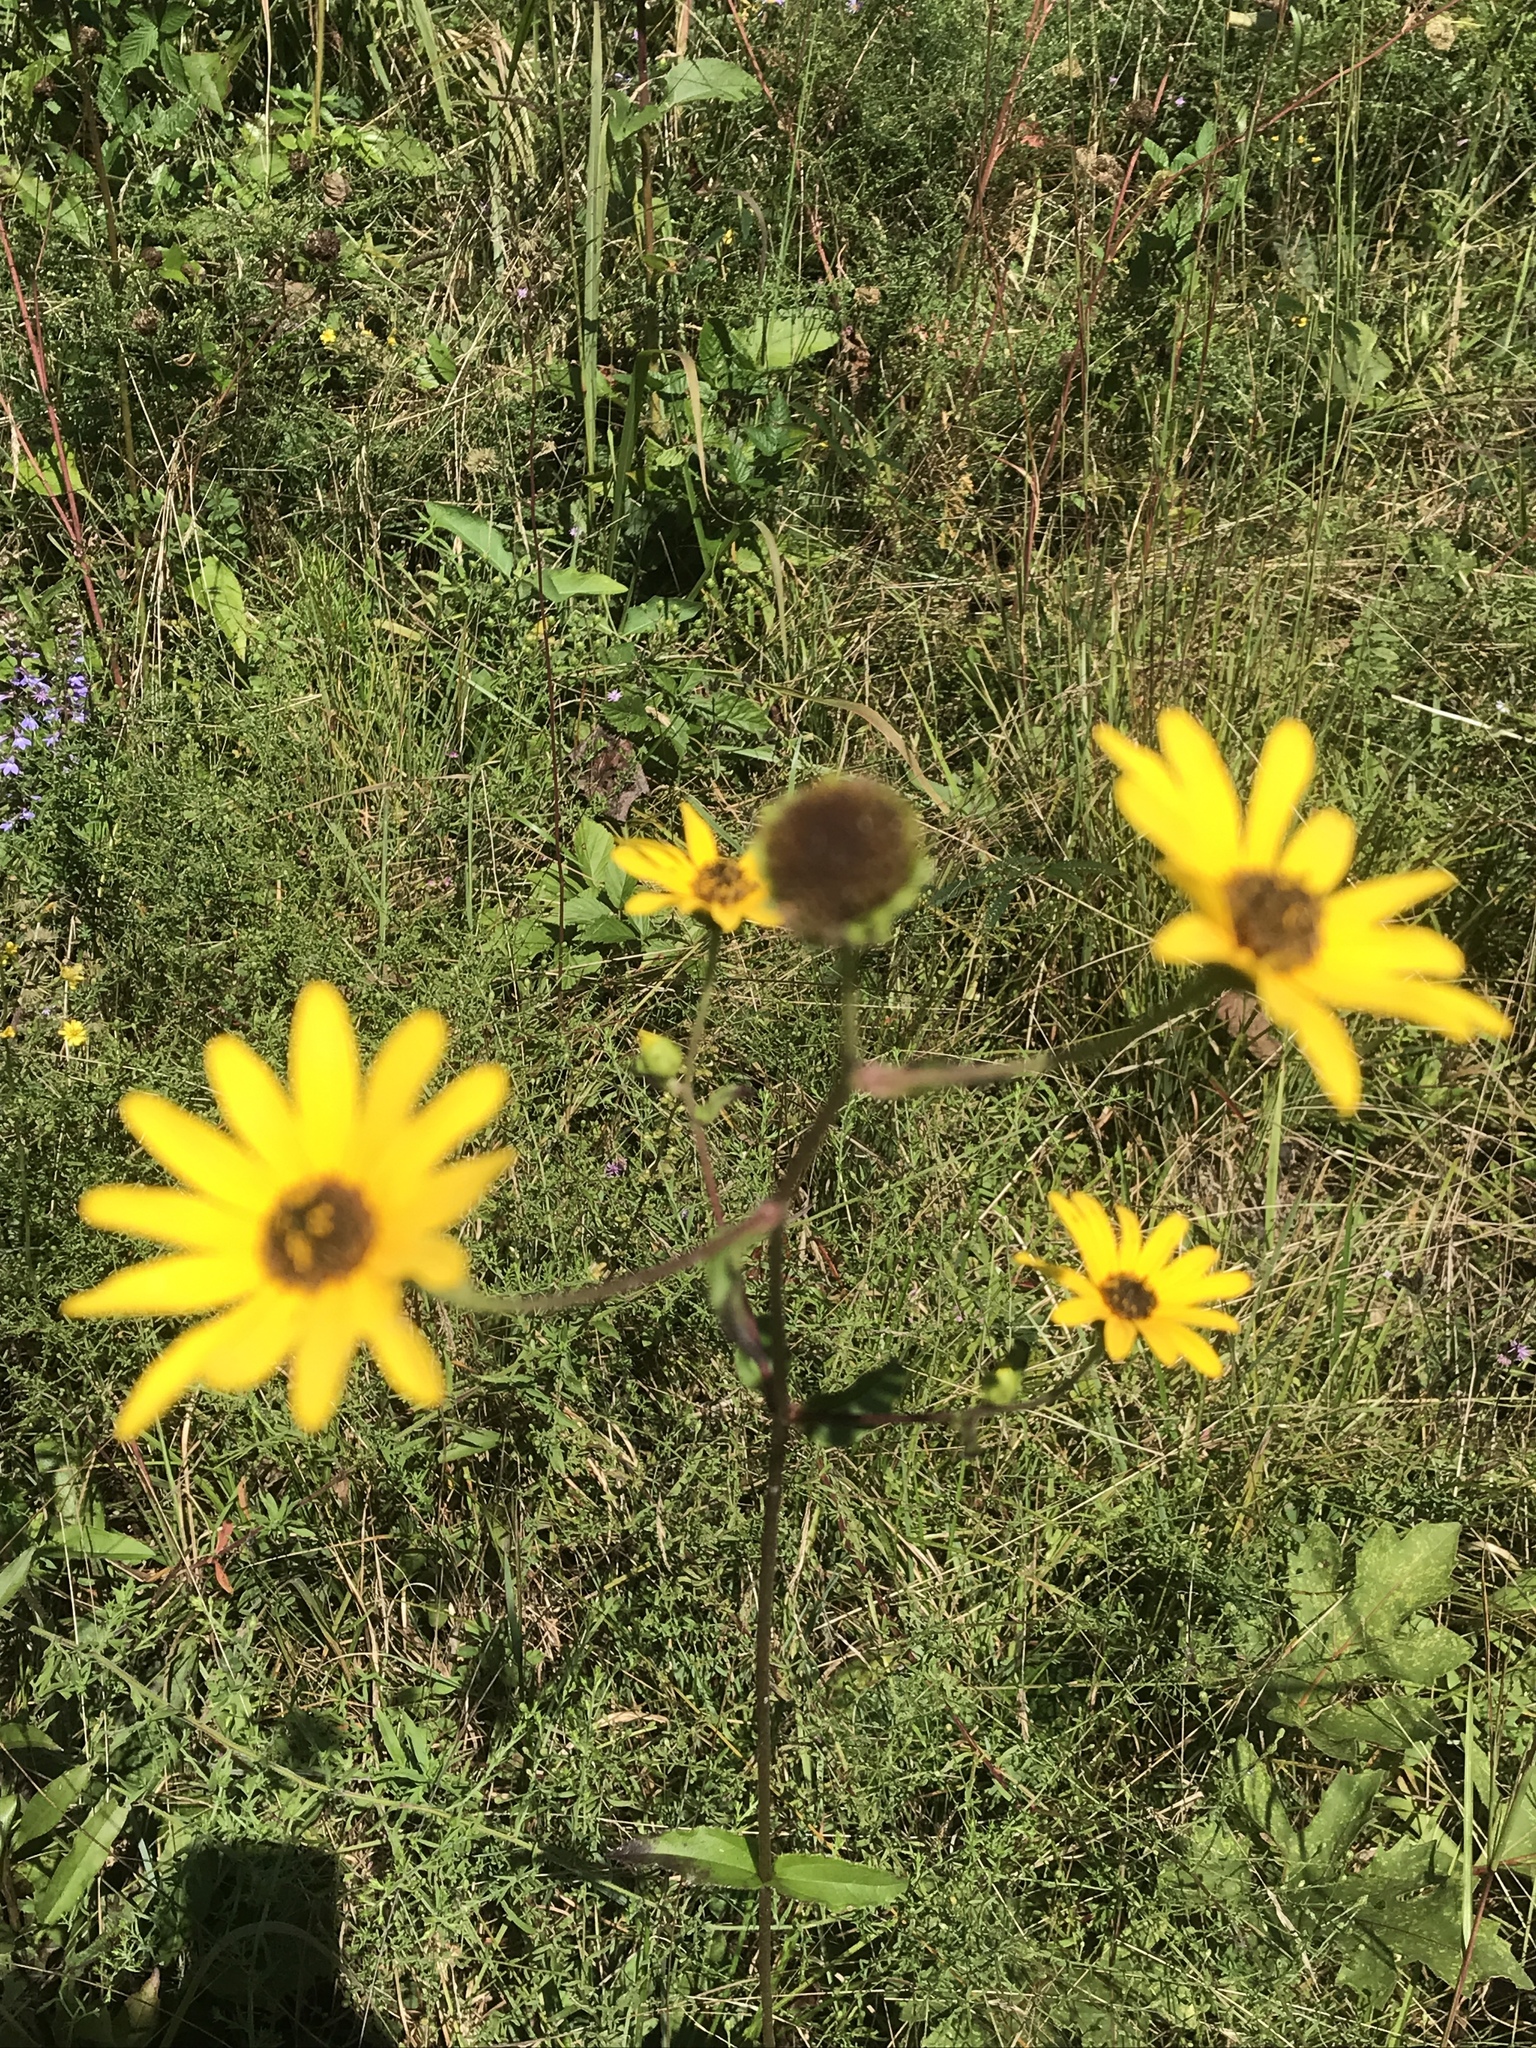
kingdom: Plantae
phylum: Tracheophyta
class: Magnoliopsida
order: Asterales
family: Asteraceae
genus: Helianthus
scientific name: Helianthus atrorubens
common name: Dark-eyed sunflower
